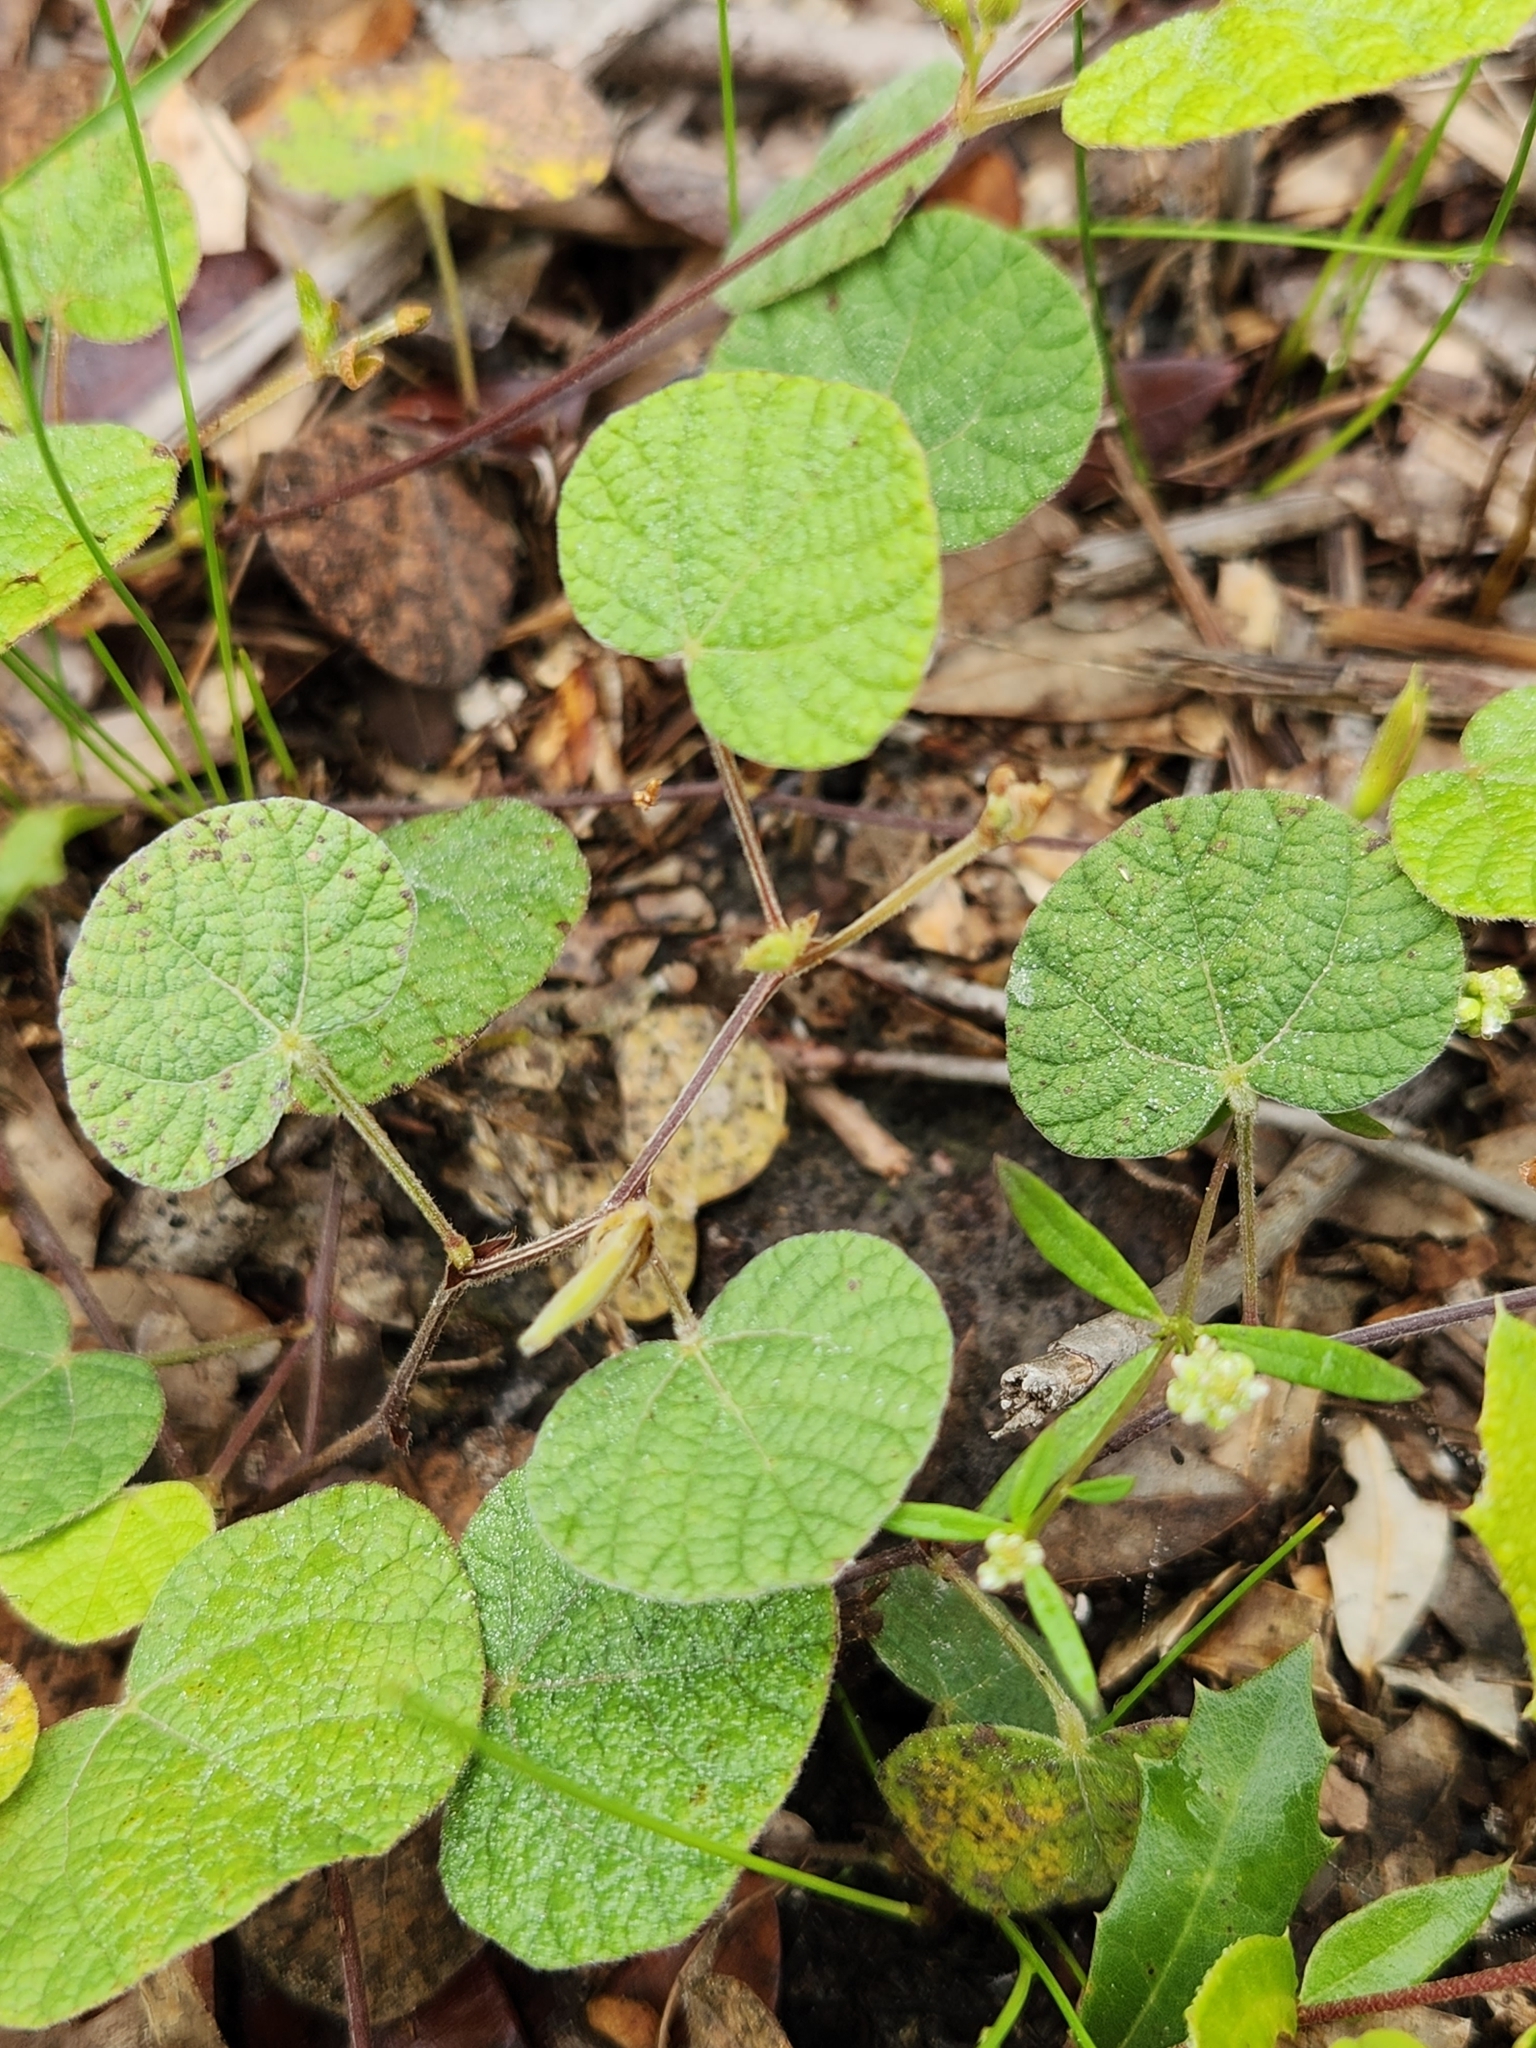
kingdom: Plantae
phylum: Tracheophyta
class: Magnoliopsida
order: Fabales
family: Fabaceae
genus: Rhynchosia
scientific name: Rhynchosia americana
